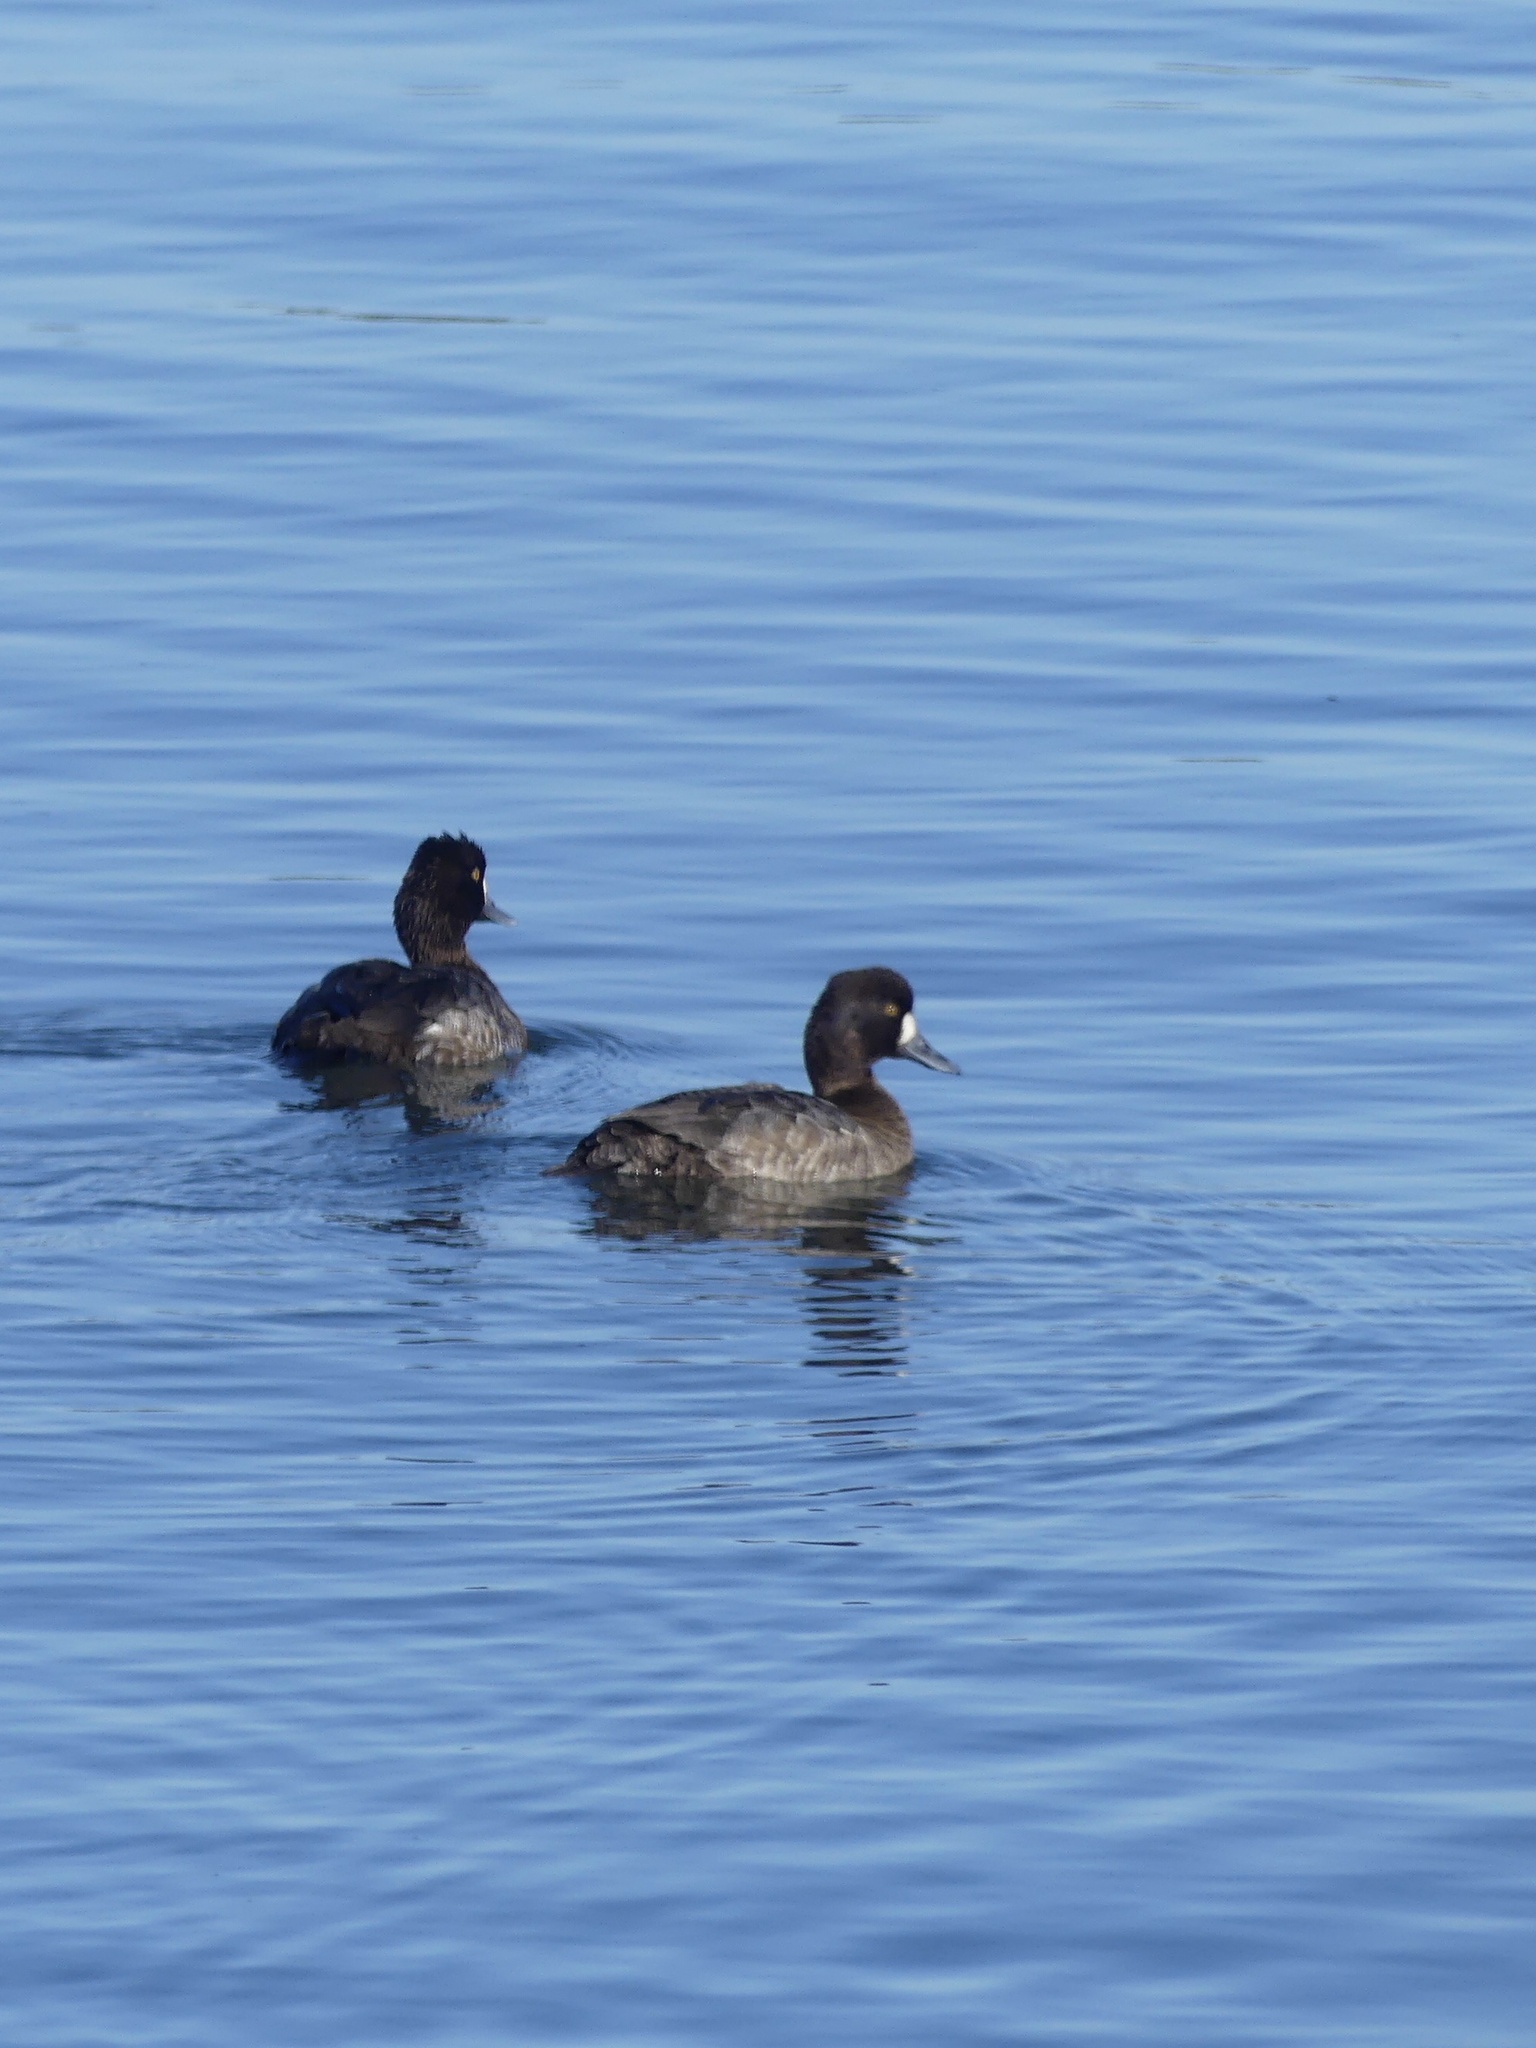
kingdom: Animalia
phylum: Chordata
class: Aves
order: Anseriformes
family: Anatidae
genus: Aythya
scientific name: Aythya affinis
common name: Lesser scaup
